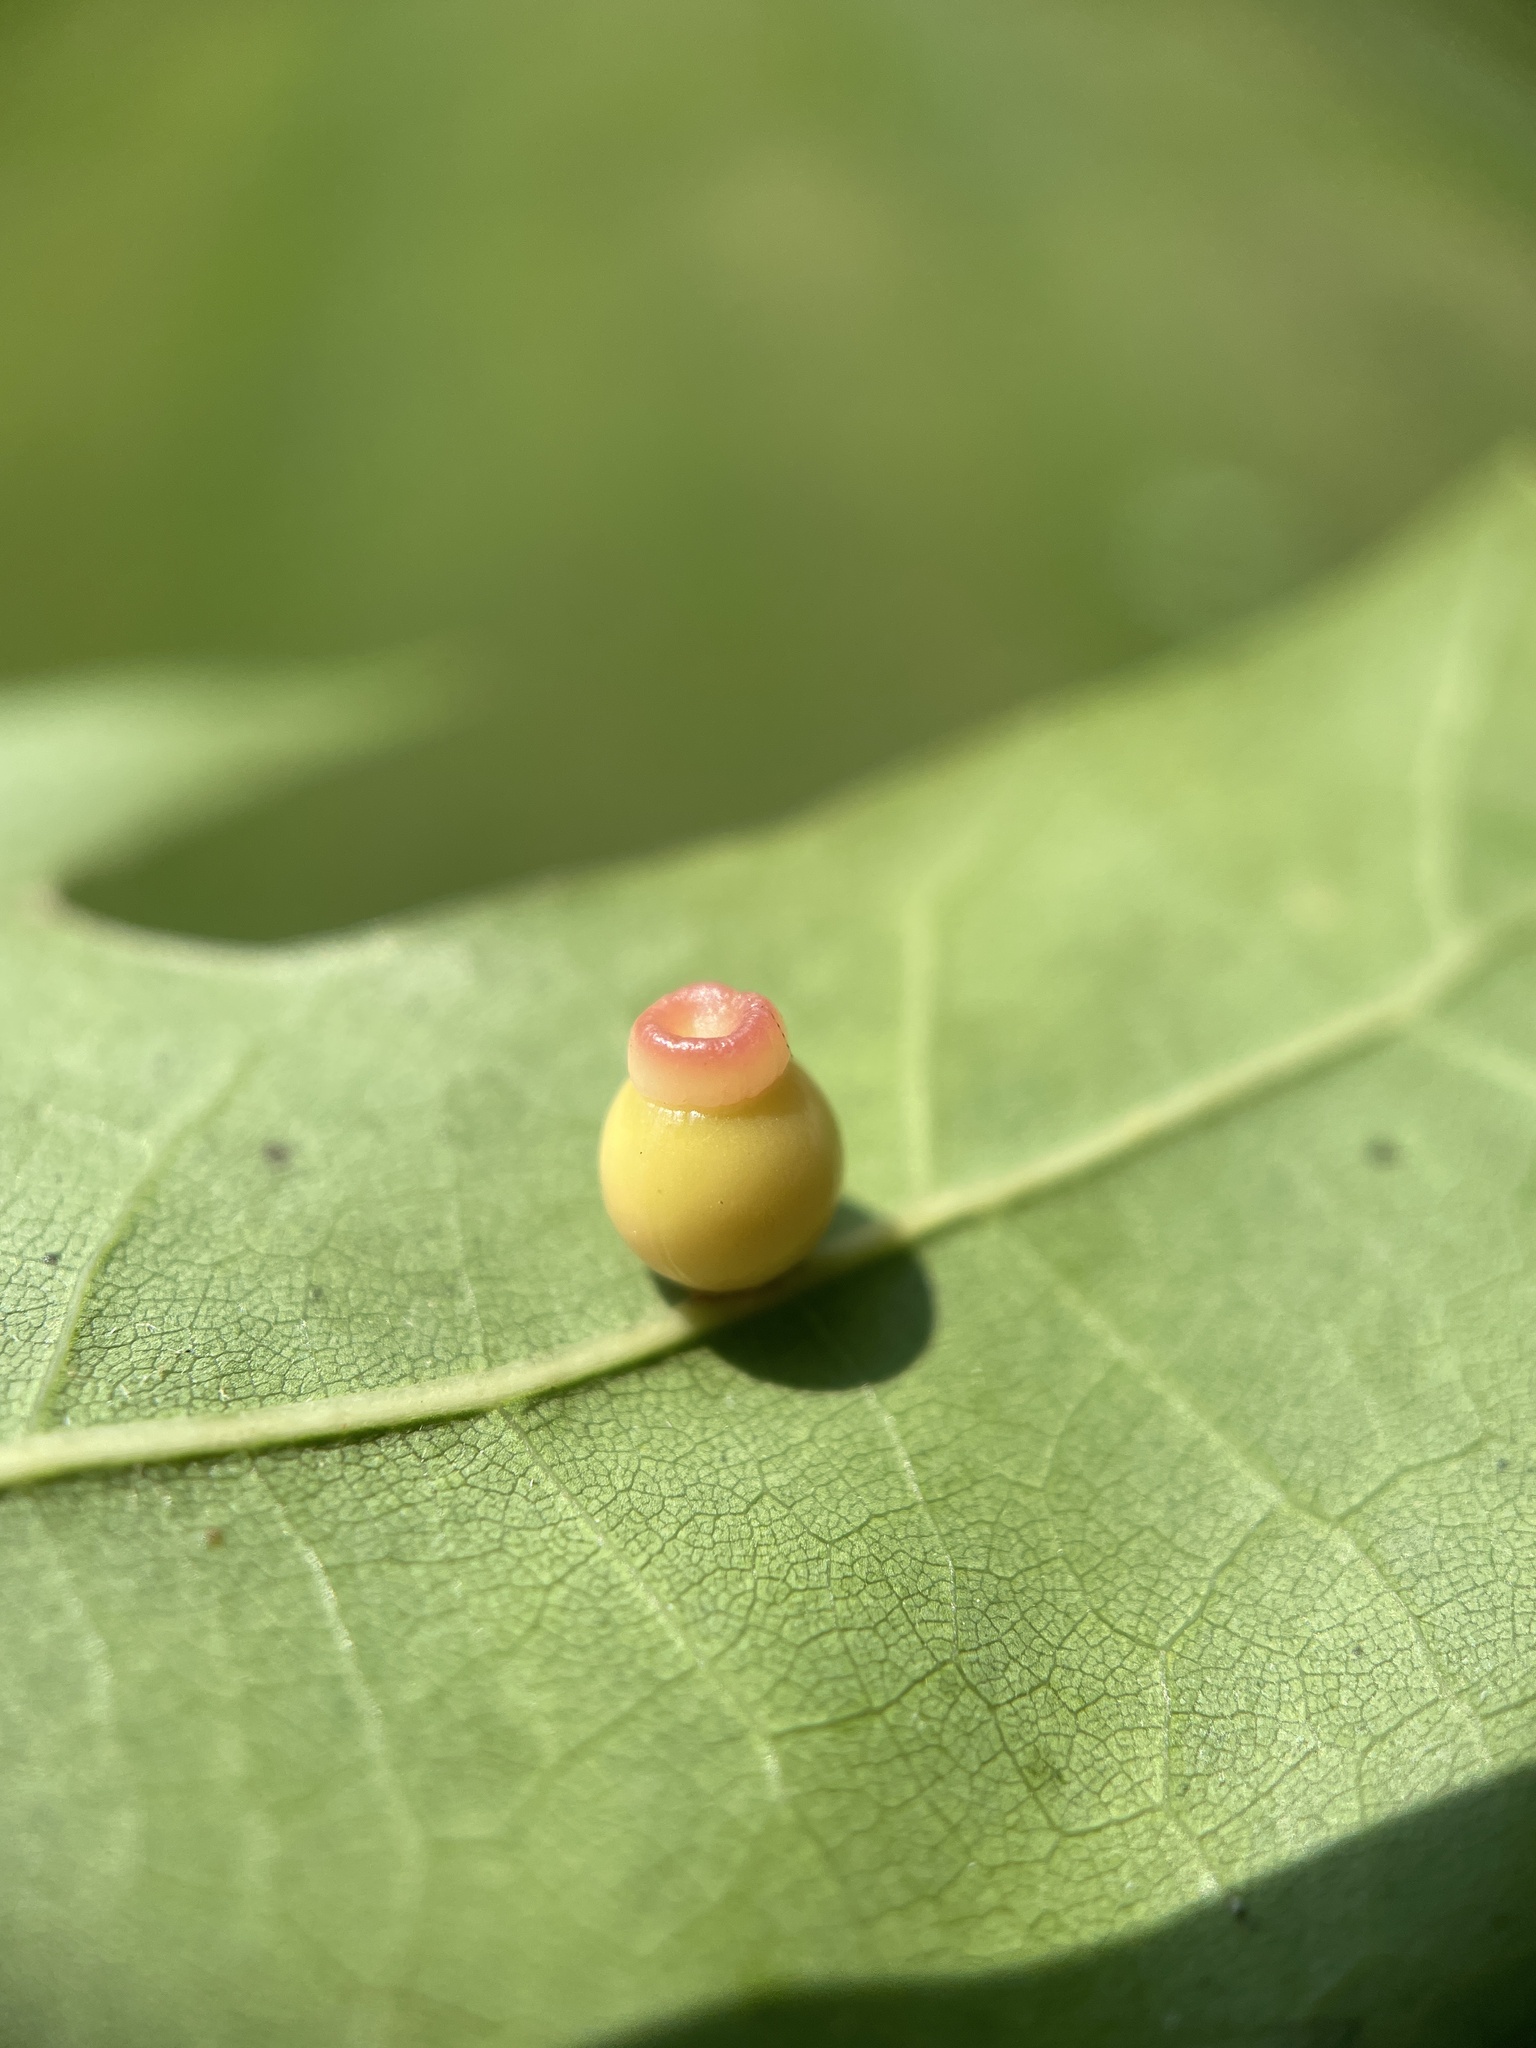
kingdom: Animalia
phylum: Arthropoda
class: Insecta
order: Hymenoptera
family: Cynipidae
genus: Kokkocynips
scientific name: Kokkocynips rileyi
